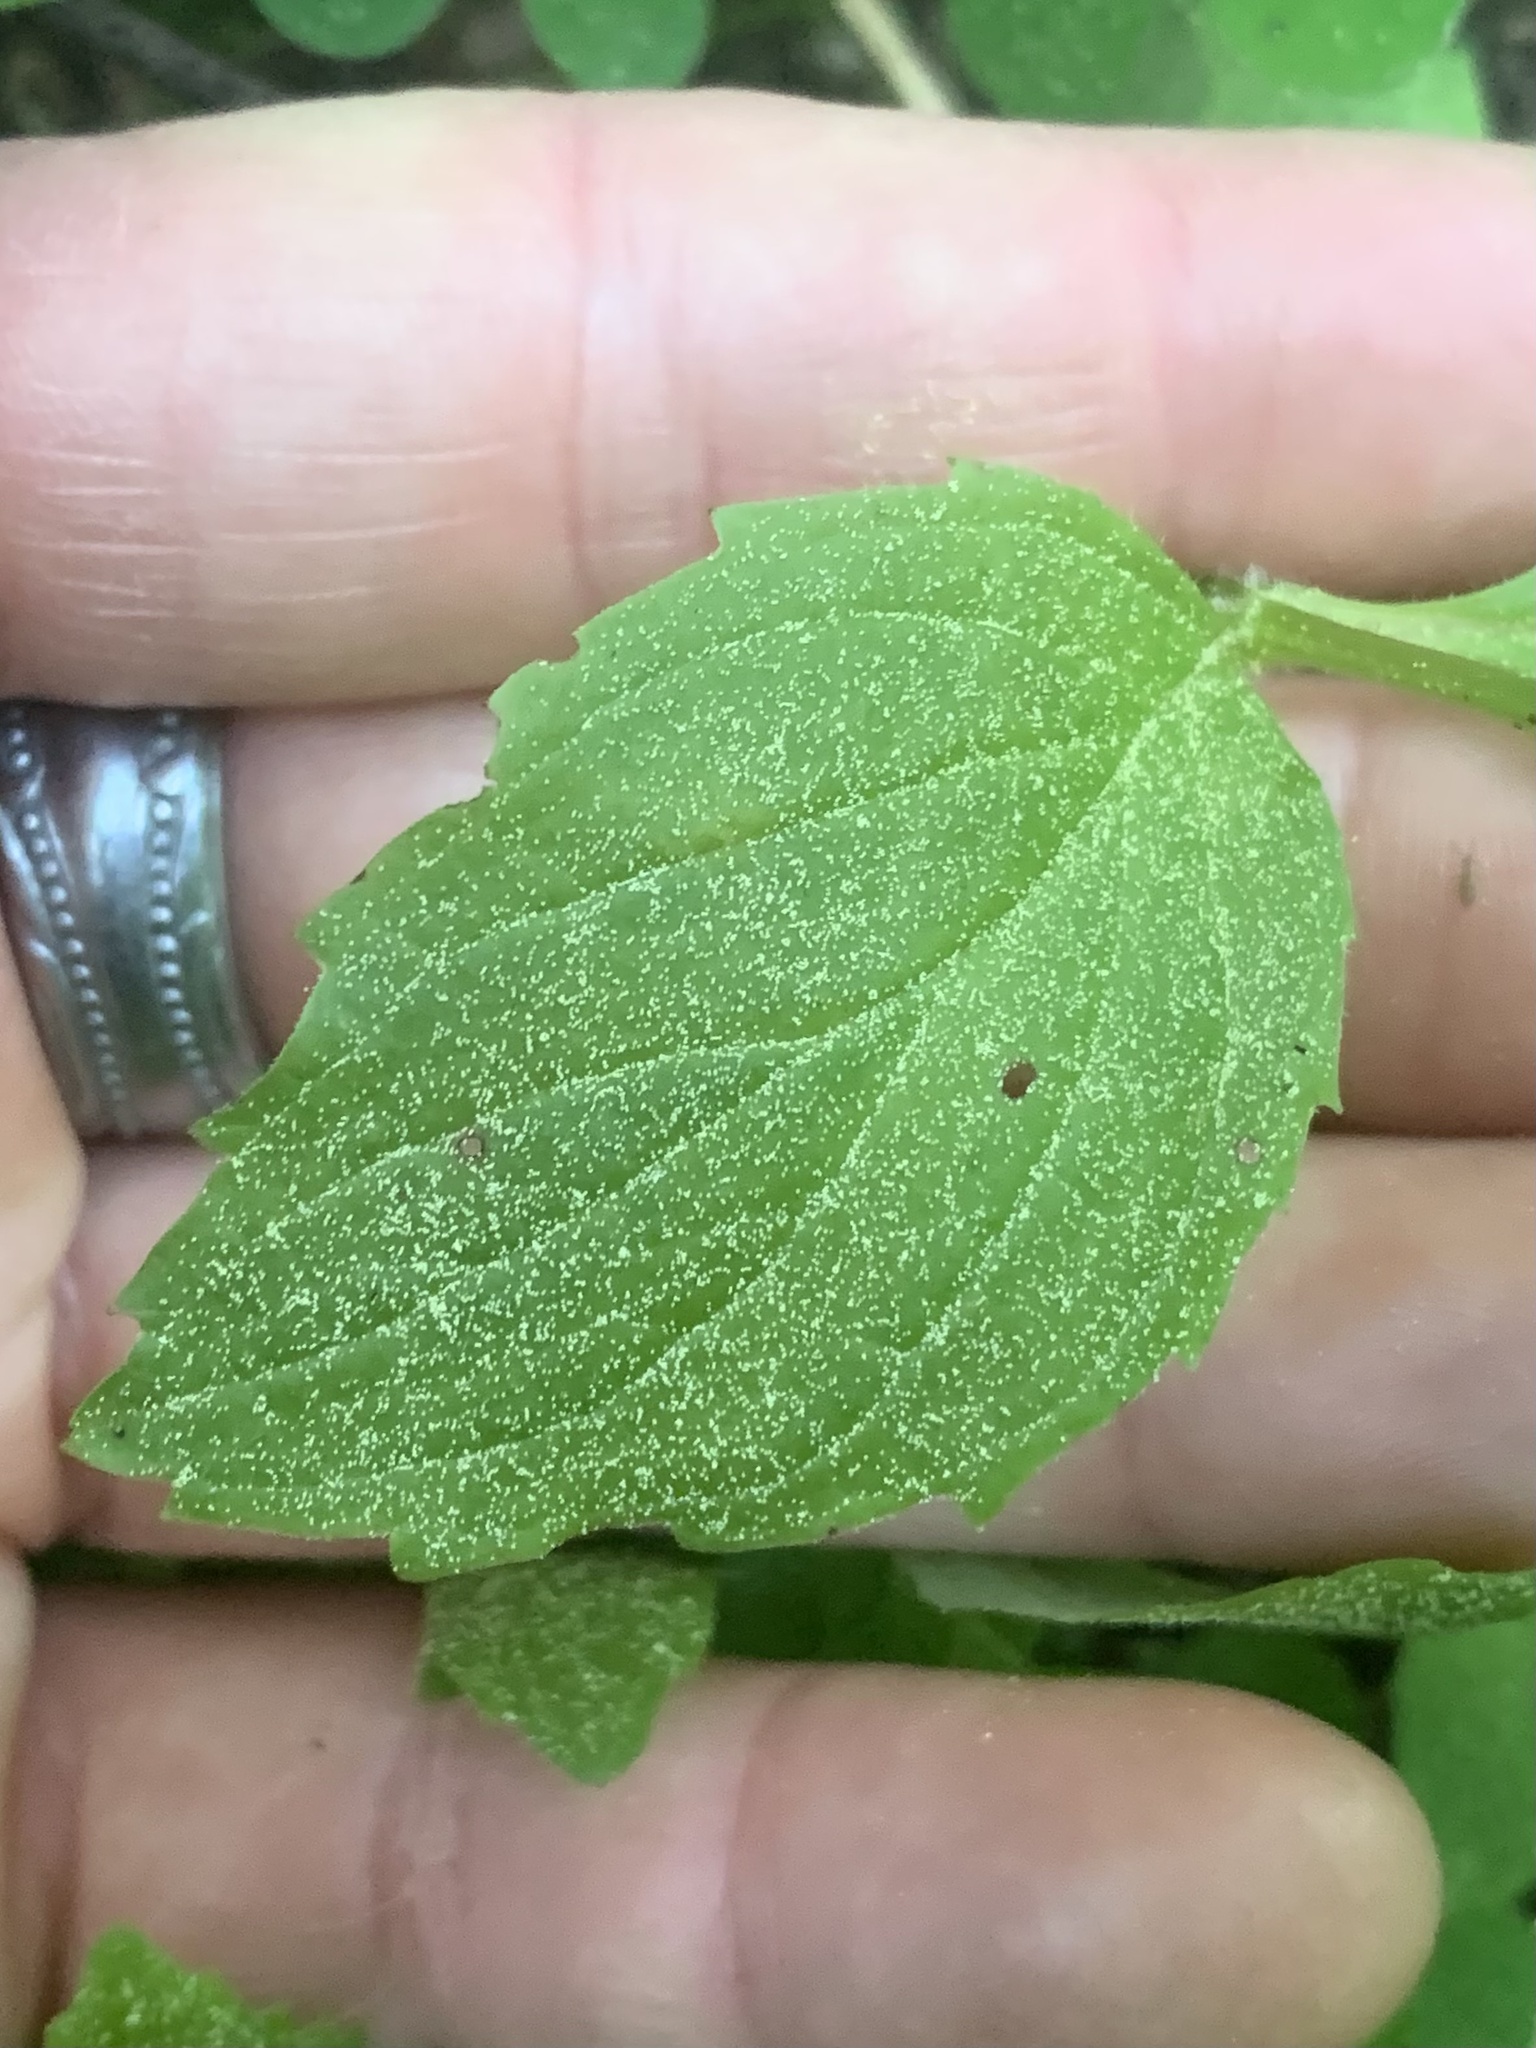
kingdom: Plantae
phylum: Tracheophyta
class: Magnoliopsida
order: Lamiales
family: Phrymaceae
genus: Erythranthe
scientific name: Erythranthe dentata
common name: Coastal monkeyflower
